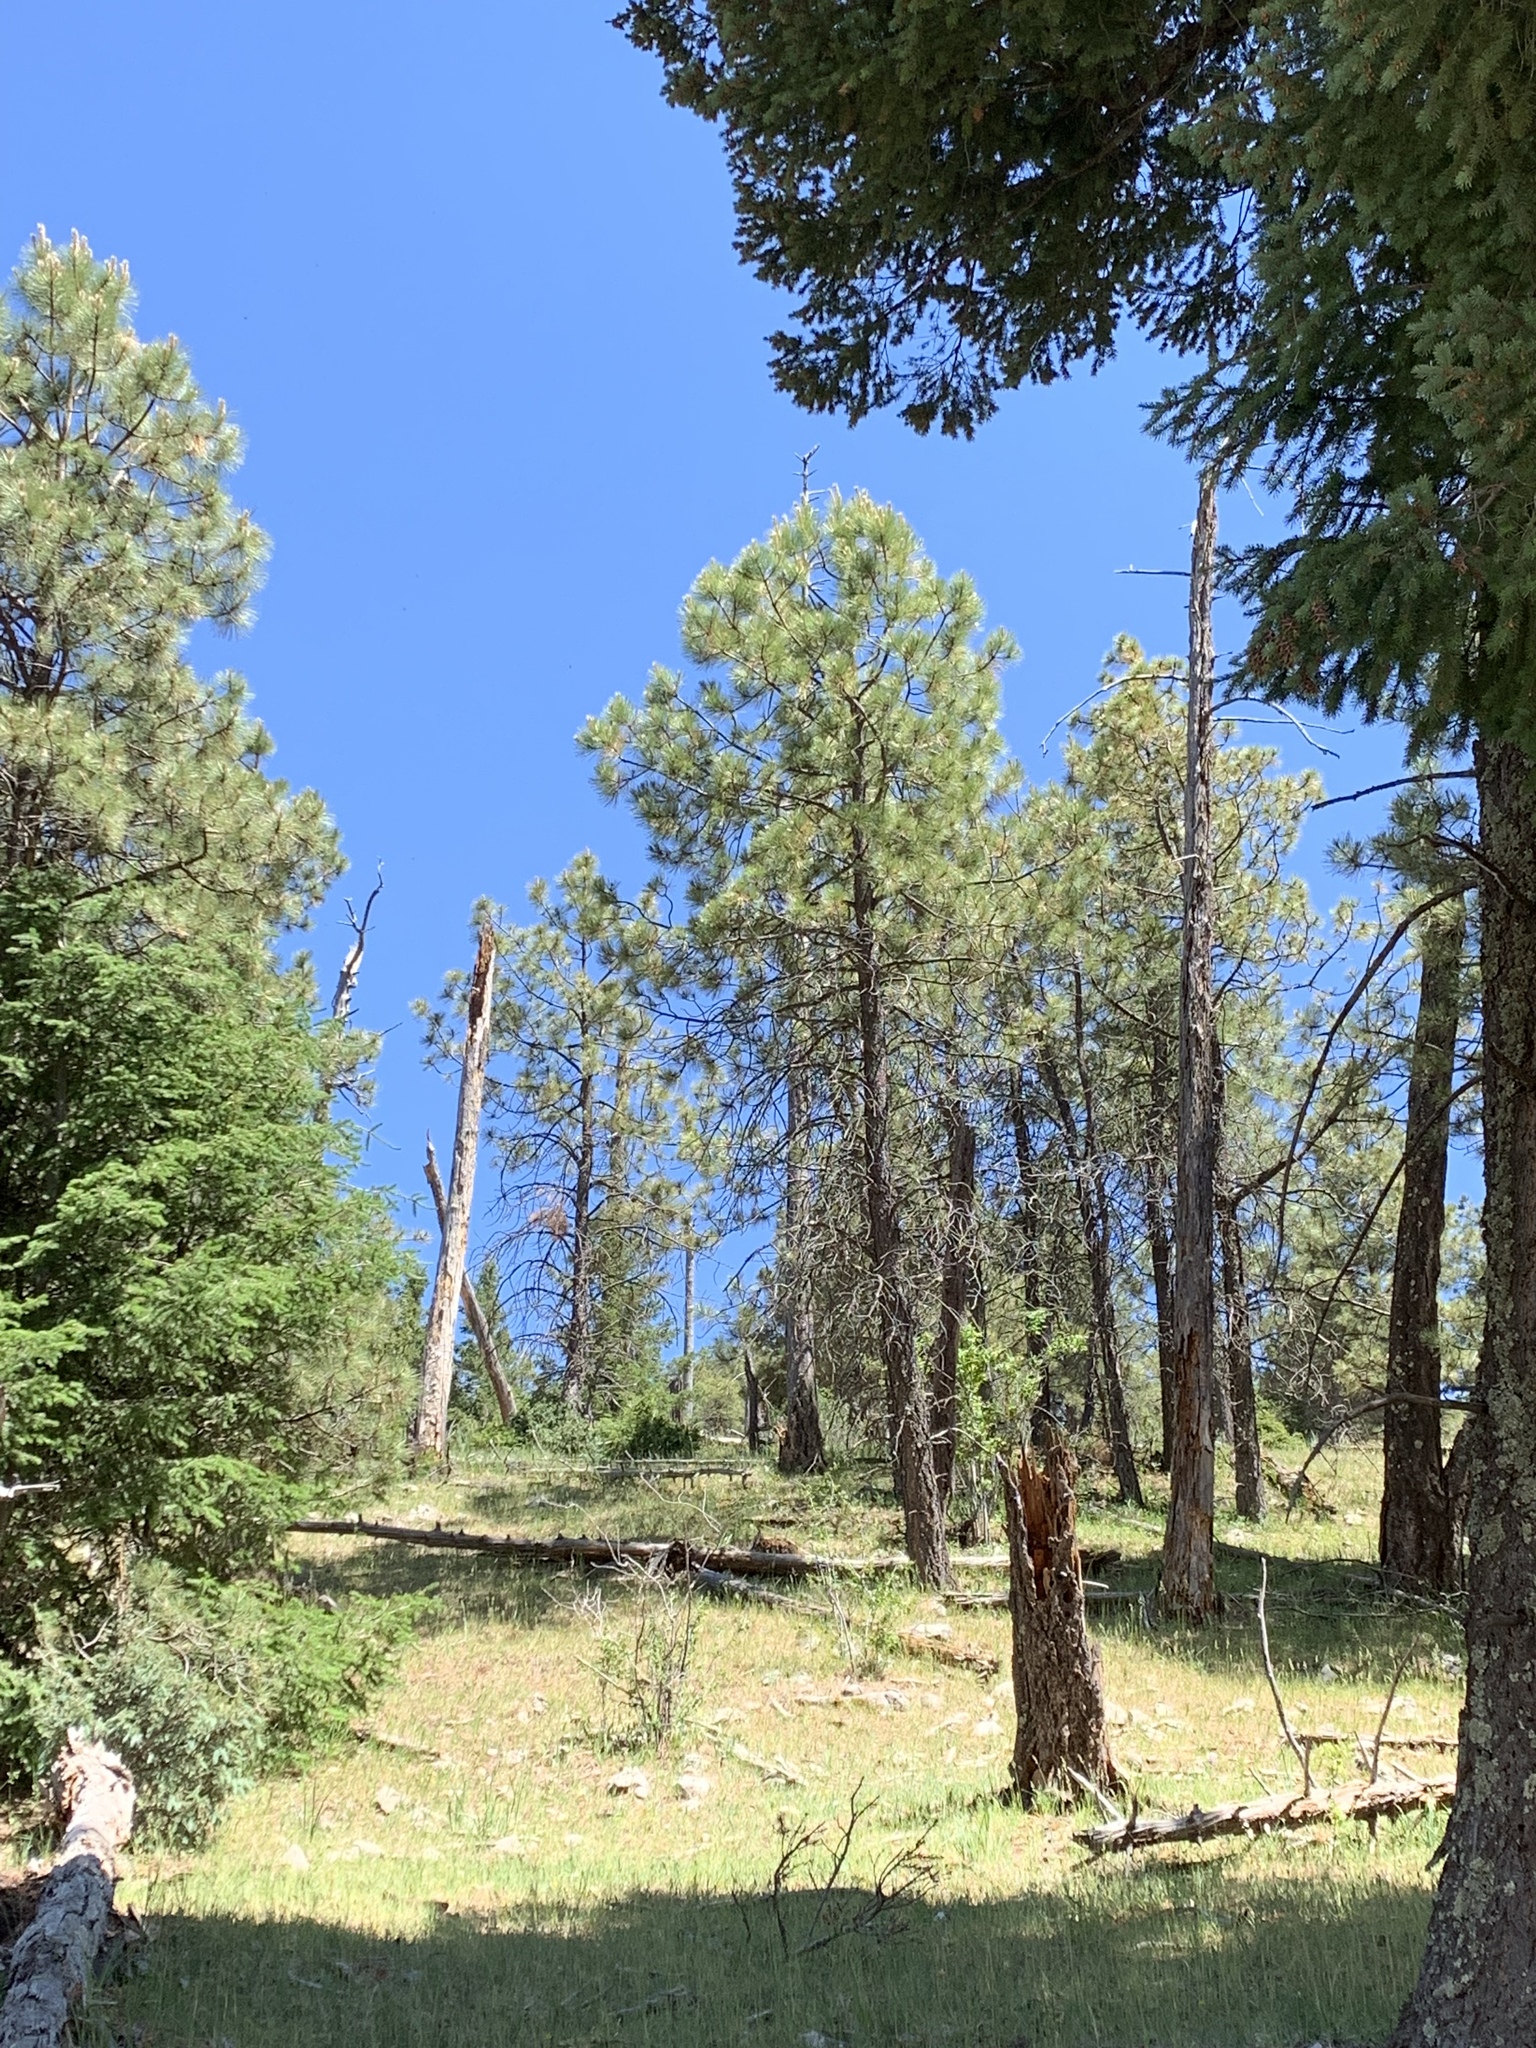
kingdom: Plantae
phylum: Tracheophyta
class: Pinopsida
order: Pinales
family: Pinaceae
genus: Pinus
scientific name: Pinus ponderosa
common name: Western yellow-pine
